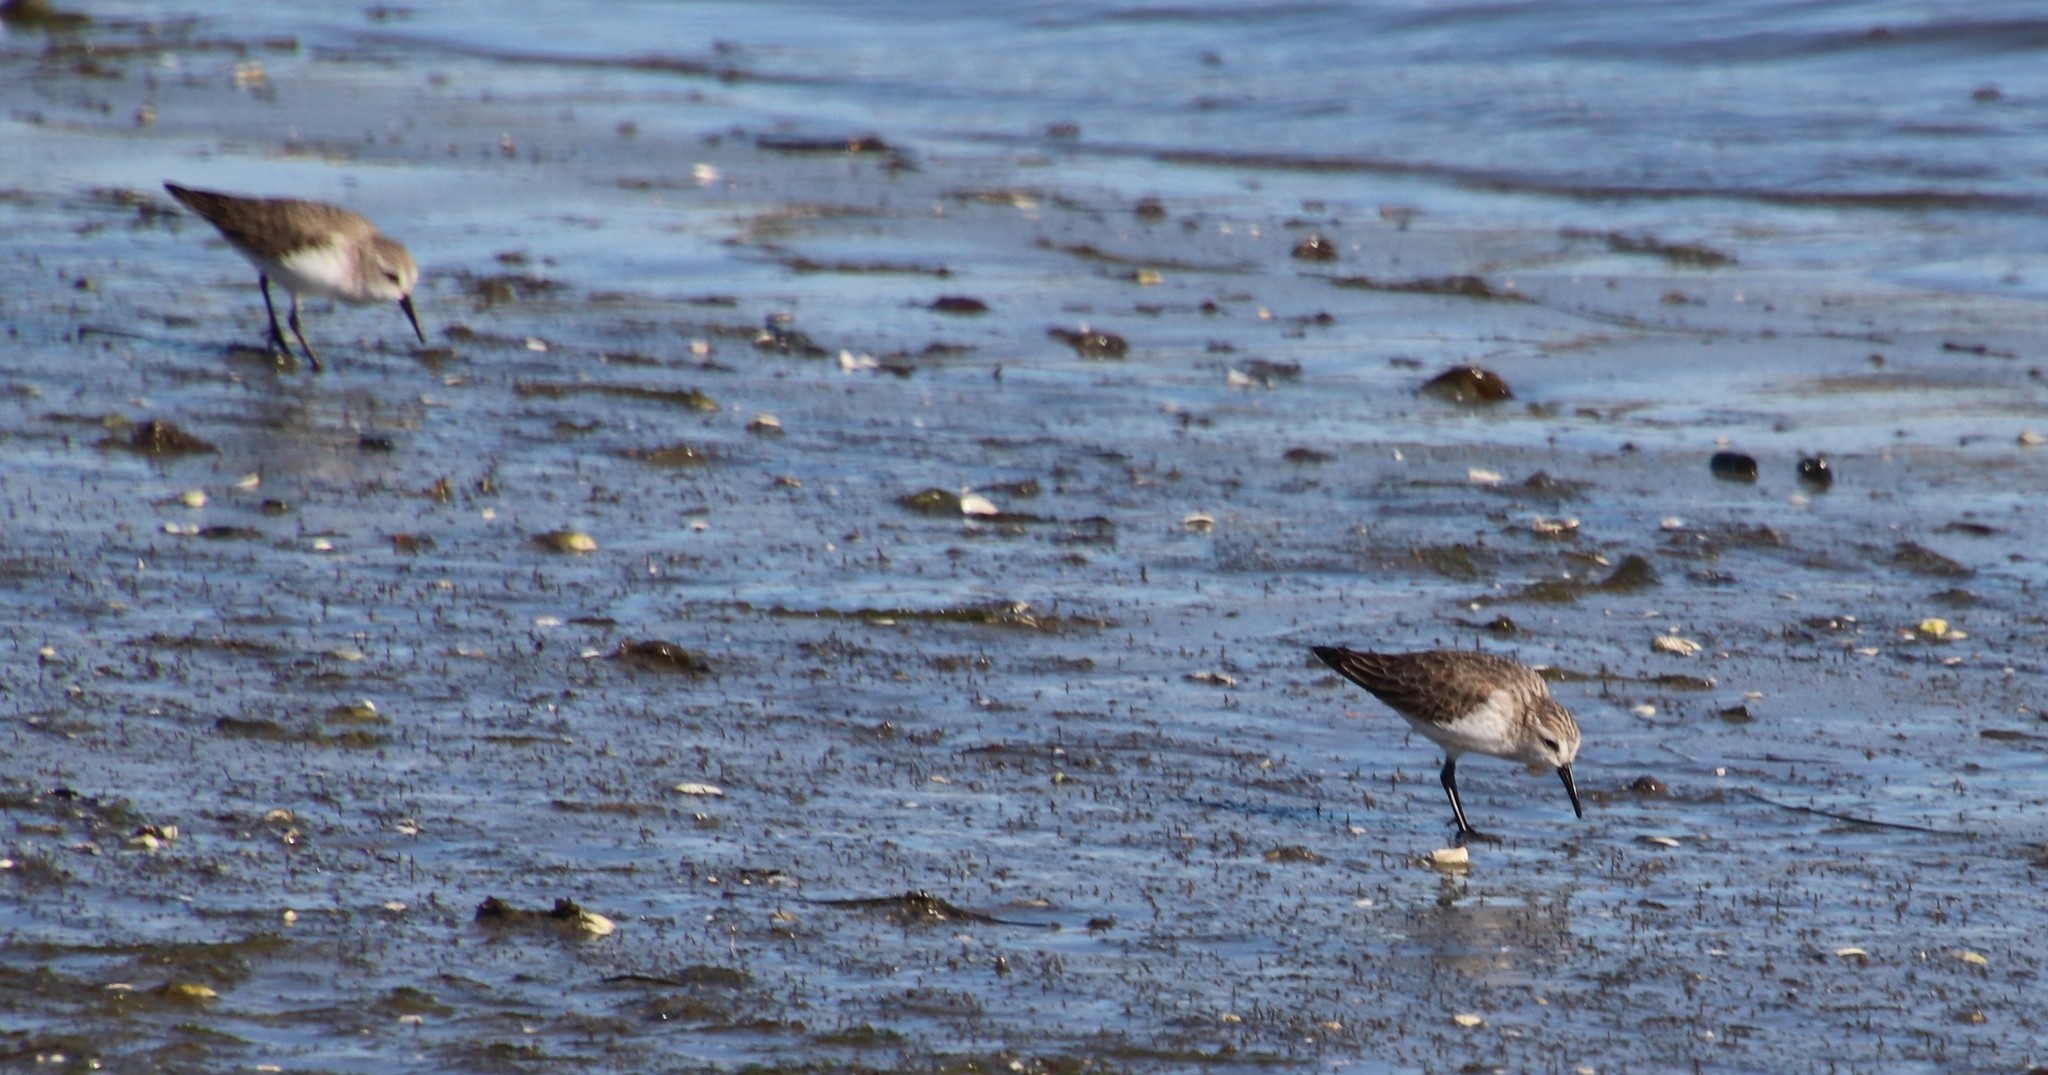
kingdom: Animalia
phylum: Chordata
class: Aves
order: Charadriiformes
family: Scolopacidae
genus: Calidris
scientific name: Calidris mauri
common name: Western sandpiper
